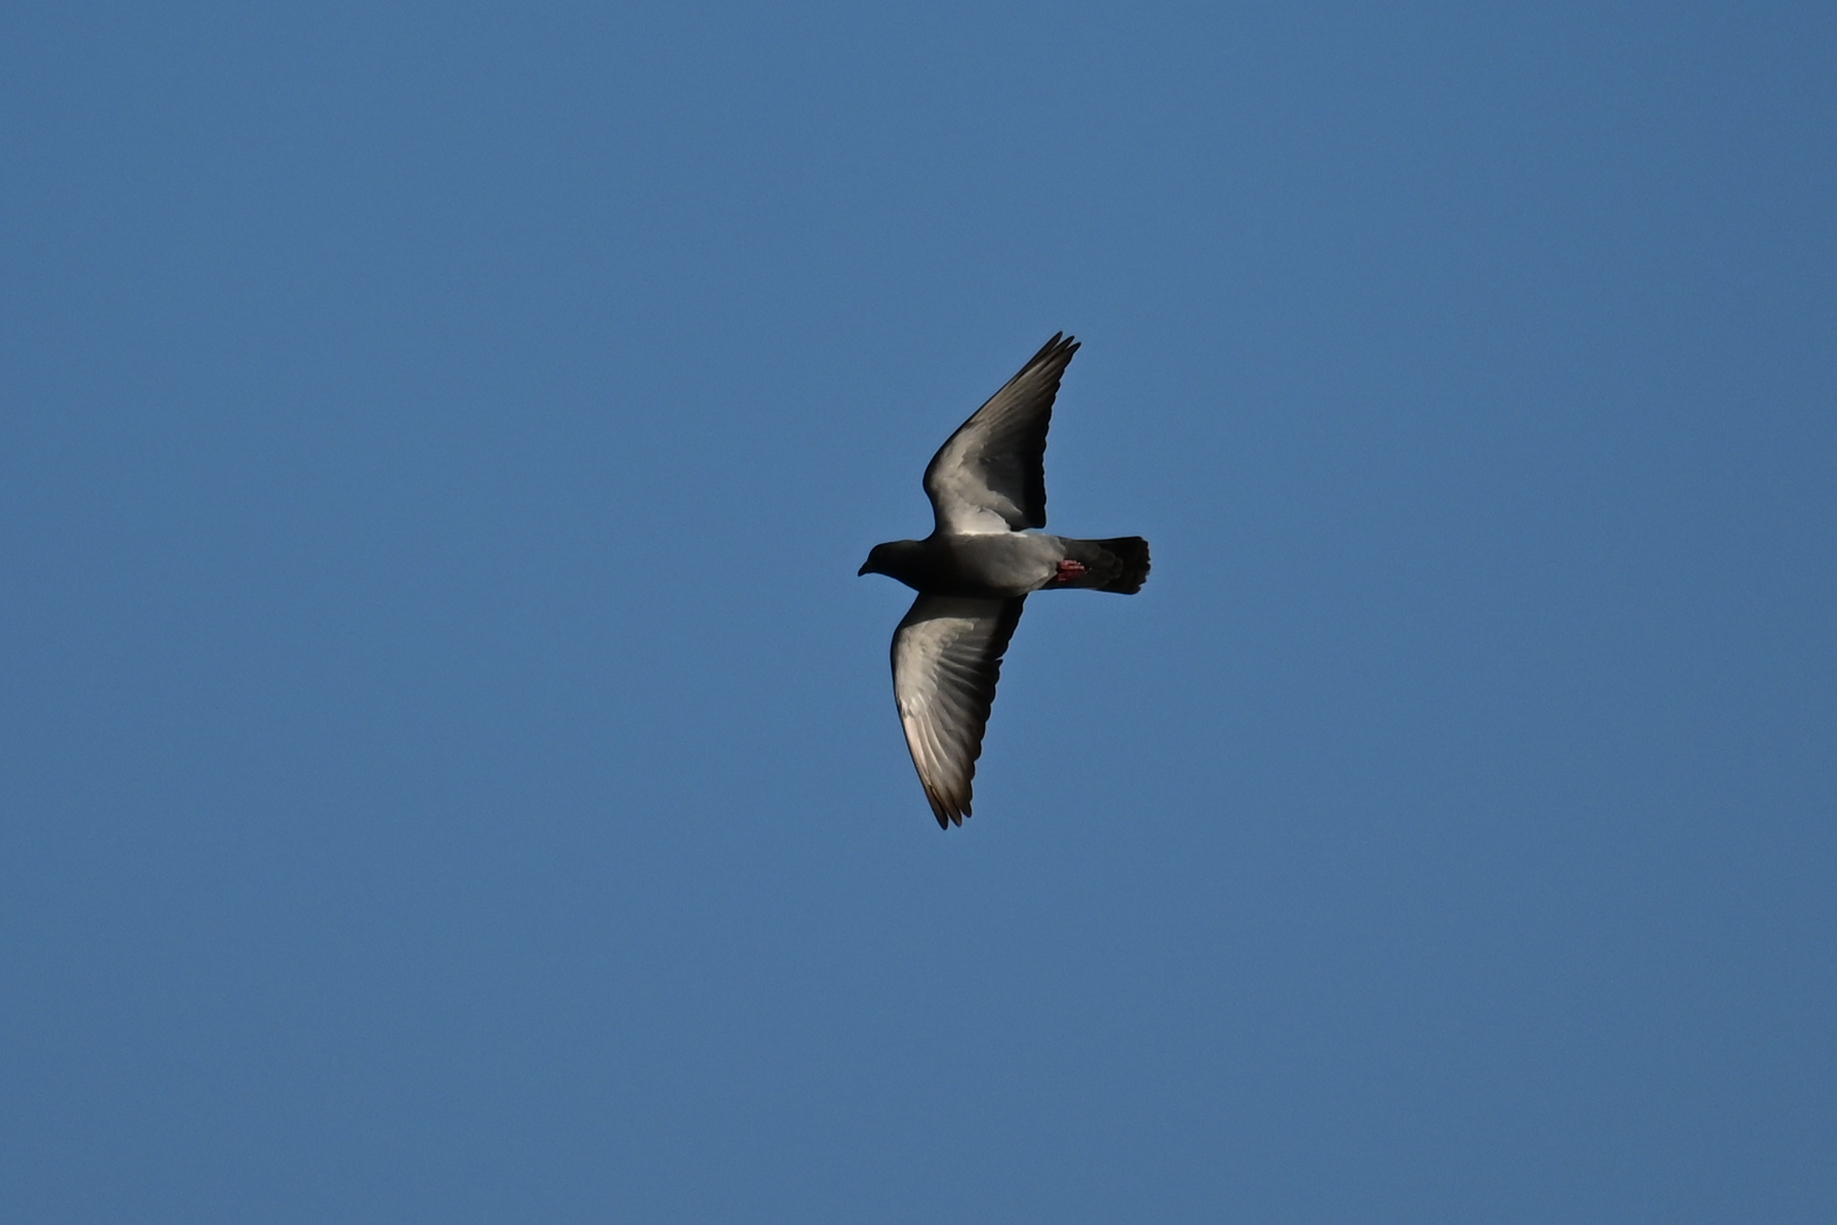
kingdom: Animalia
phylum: Chordata
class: Aves
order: Columbiformes
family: Columbidae
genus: Columba
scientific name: Columba livia
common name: Rock pigeon
